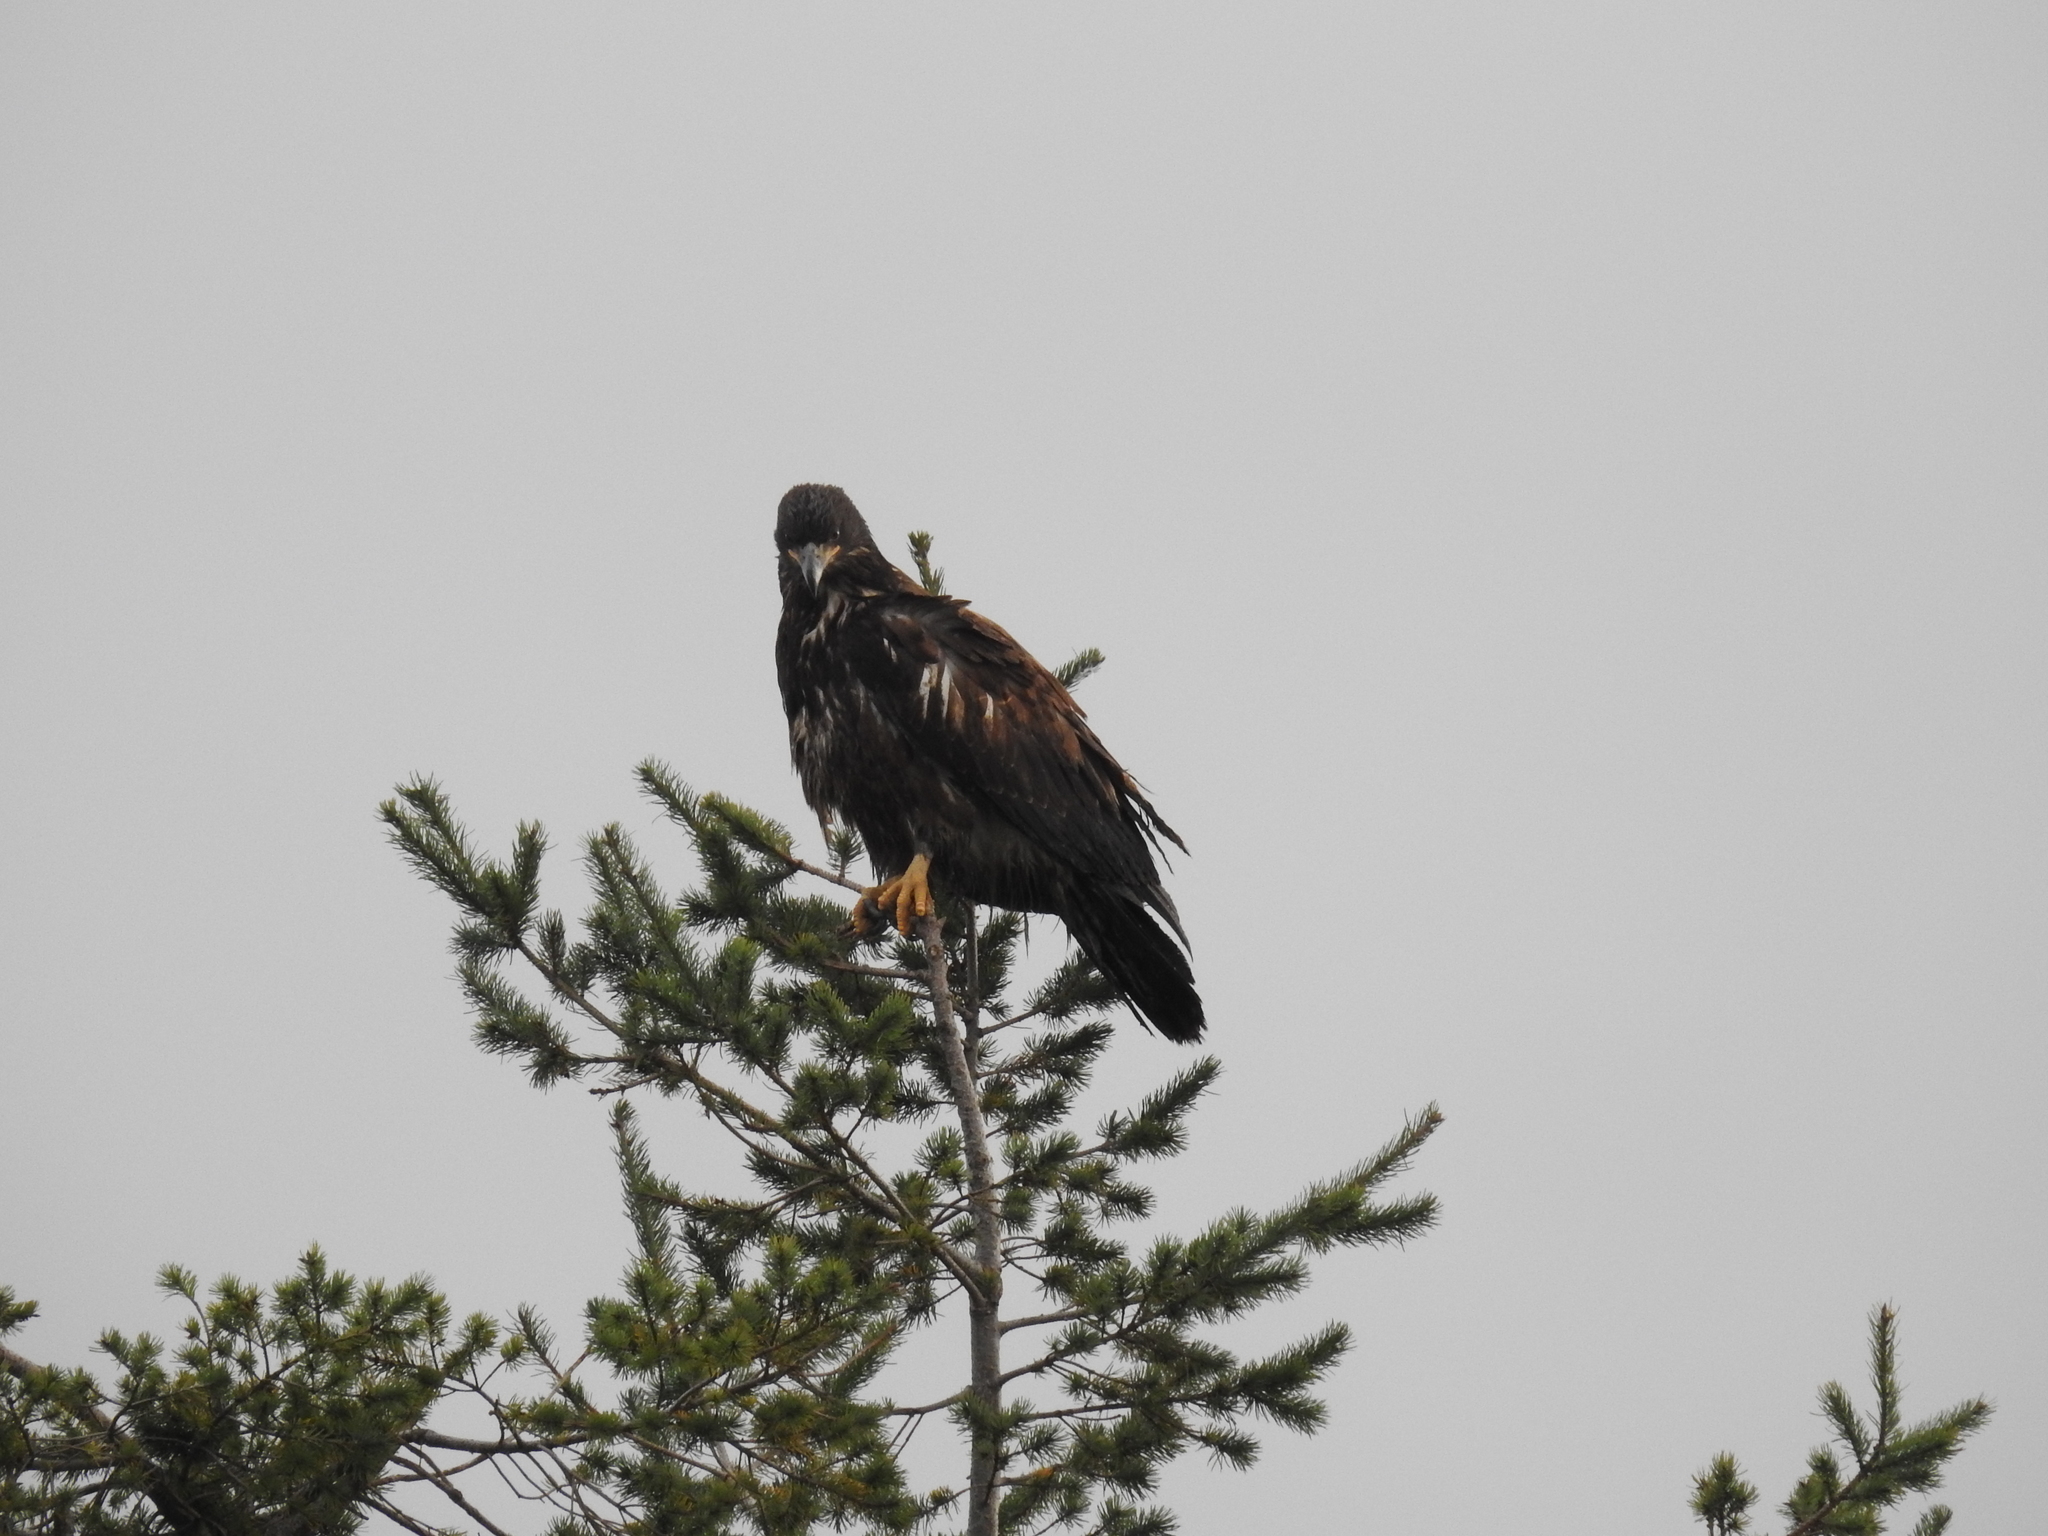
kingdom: Animalia
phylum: Chordata
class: Aves
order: Accipitriformes
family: Accipitridae
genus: Haliaeetus
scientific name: Haliaeetus leucocephalus
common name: Bald eagle
